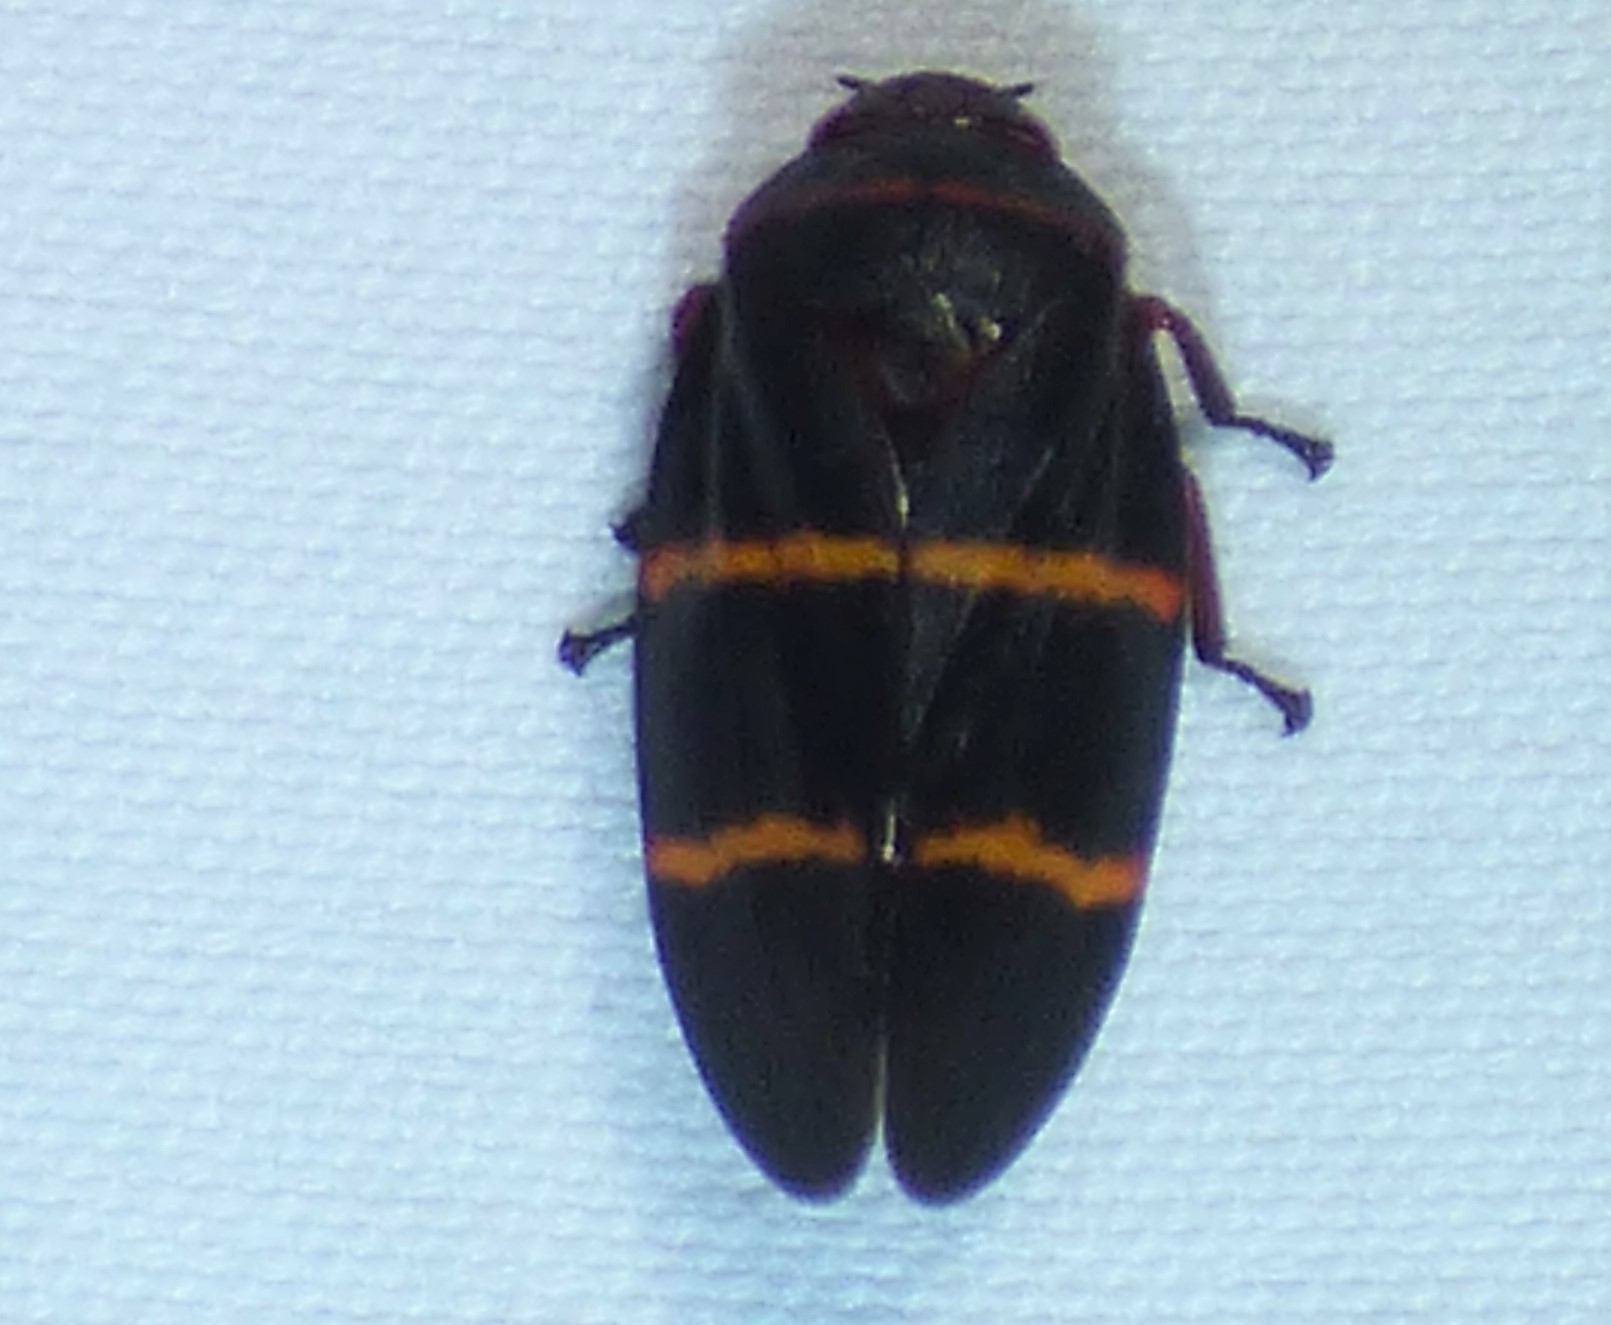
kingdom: Animalia
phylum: Arthropoda
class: Insecta
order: Hemiptera
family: Cercopidae
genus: Prosapia
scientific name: Prosapia bicincta
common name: Twolined spittlebug
